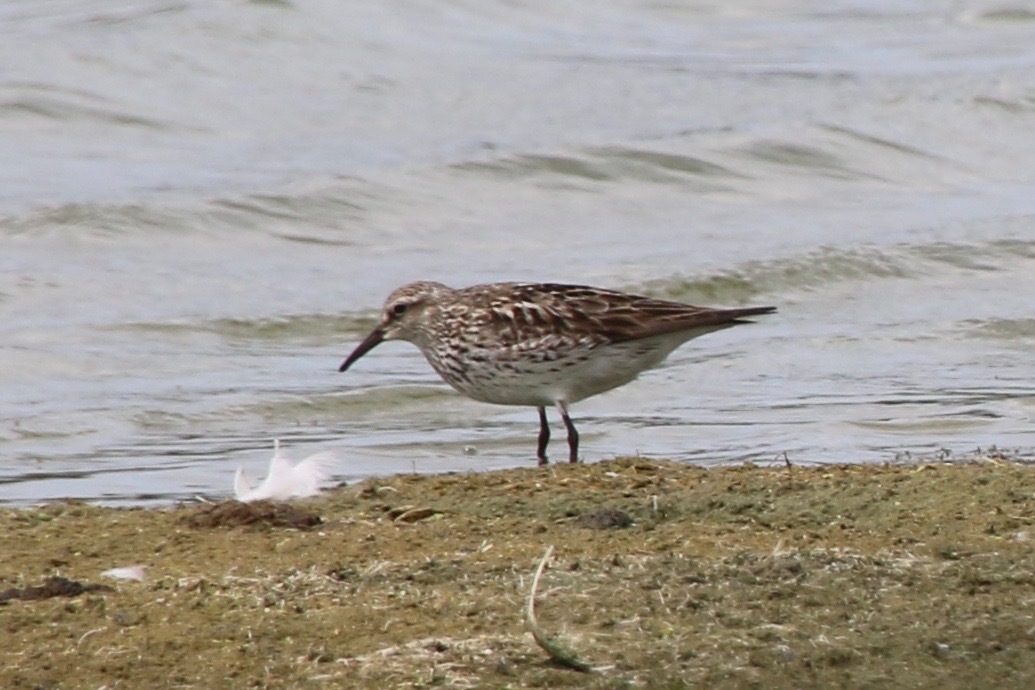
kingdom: Animalia
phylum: Chordata
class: Aves
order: Charadriiformes
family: Scolopacidae
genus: Calidris
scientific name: Calidris fuscicollis
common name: White-rumped sandpiper
